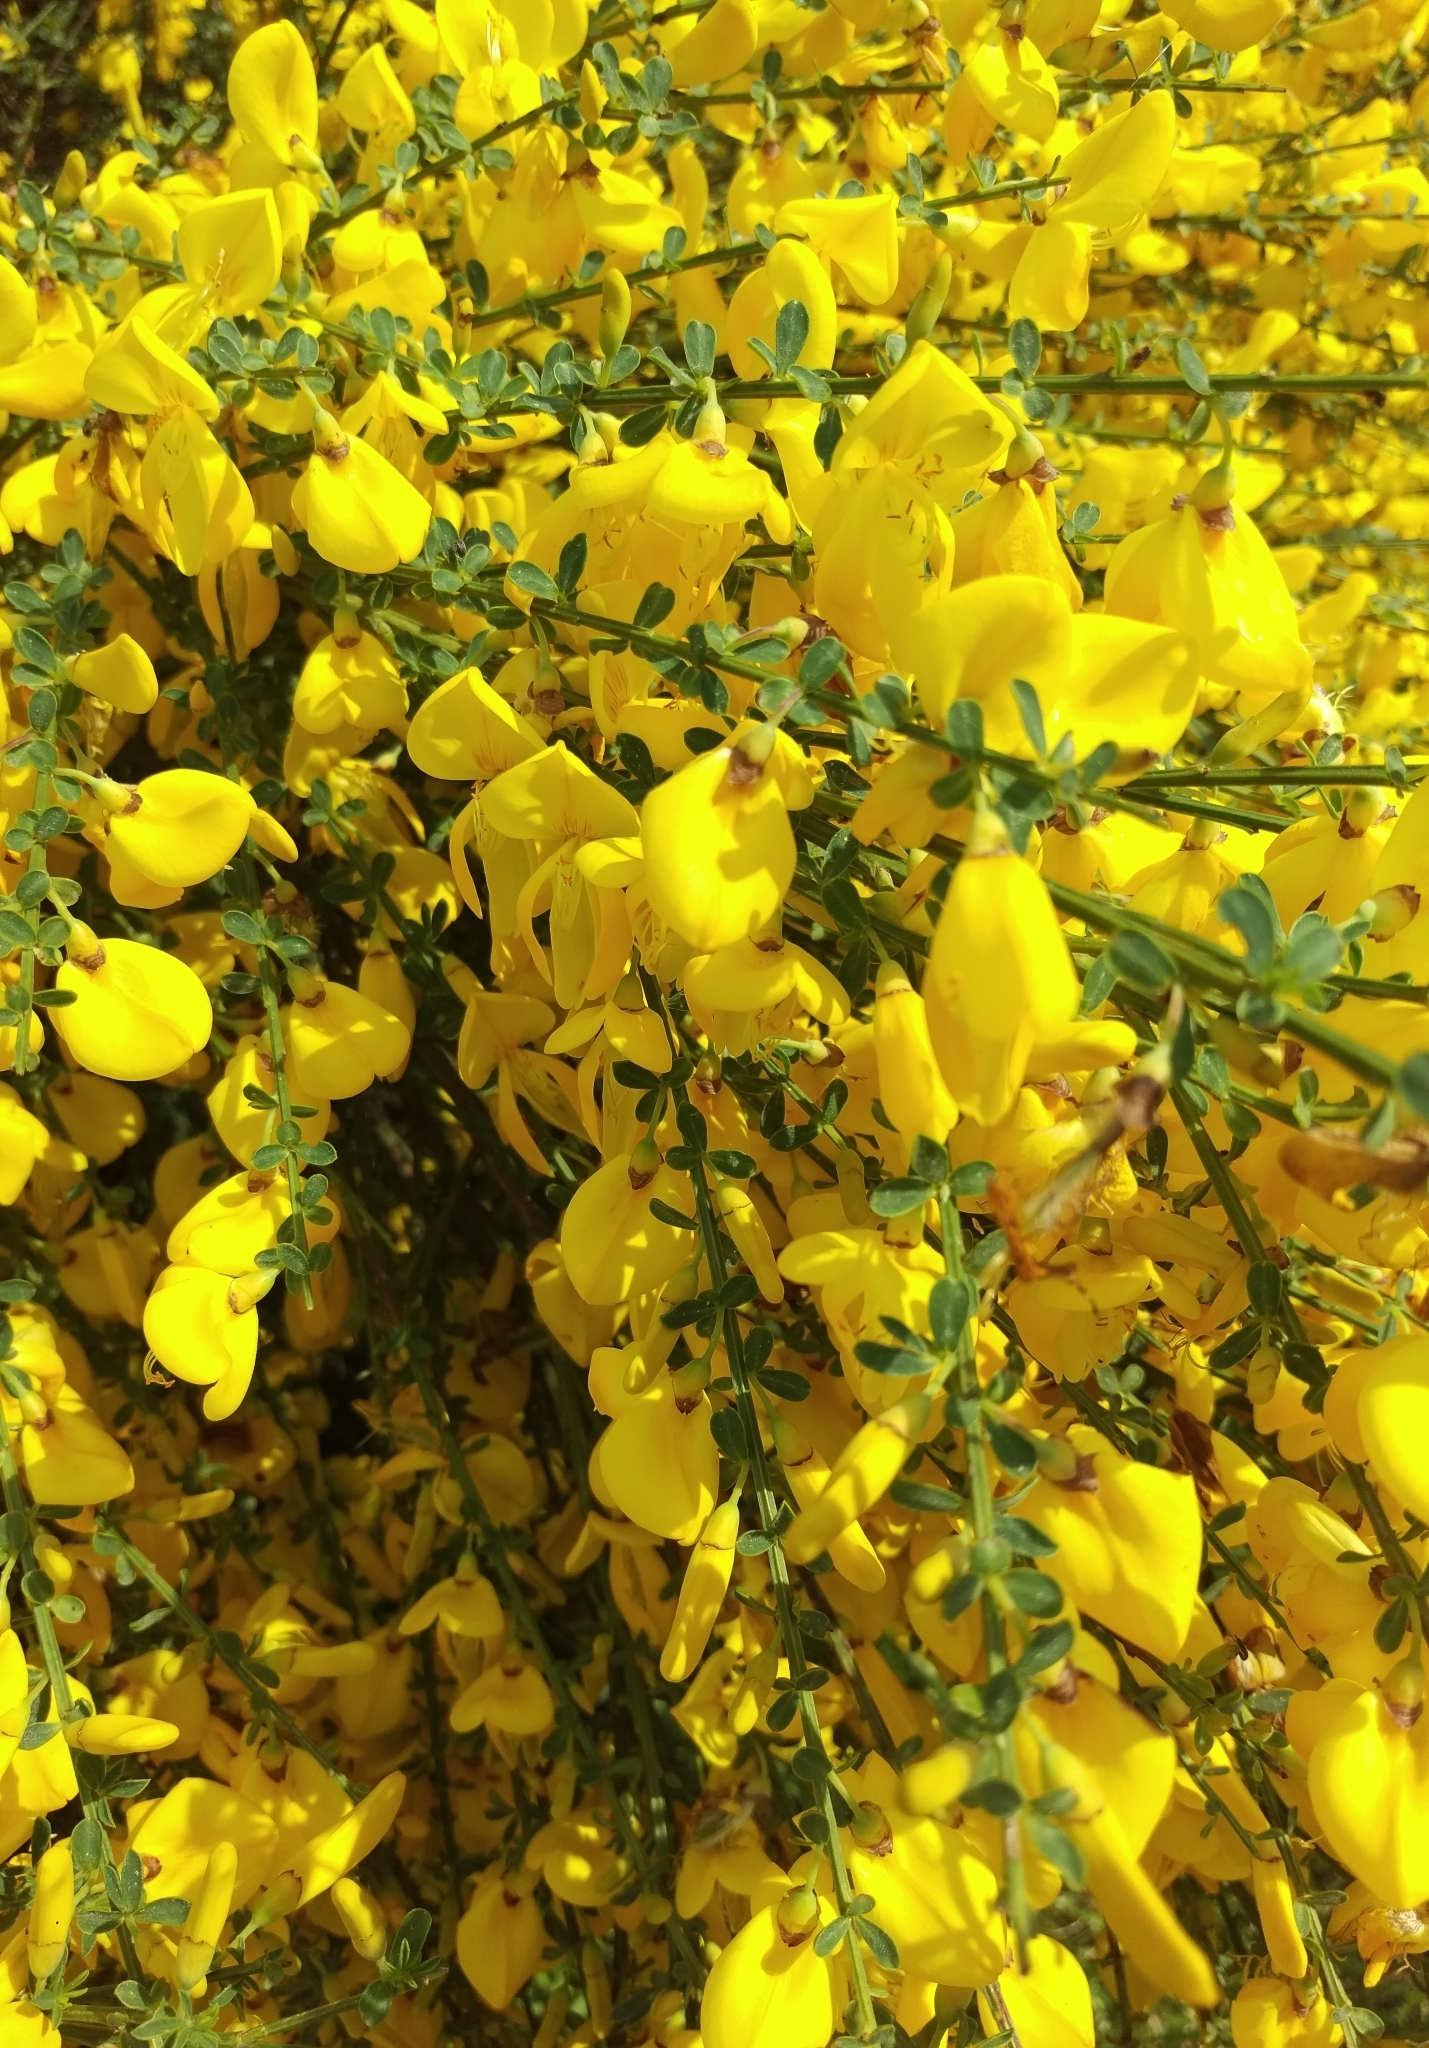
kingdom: Plantae
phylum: Tracheophyta
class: Magnoliopsida
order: Fabales
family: Fabaceae
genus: Cytisus
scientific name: Cytisus scoparius
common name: Scotch broom
